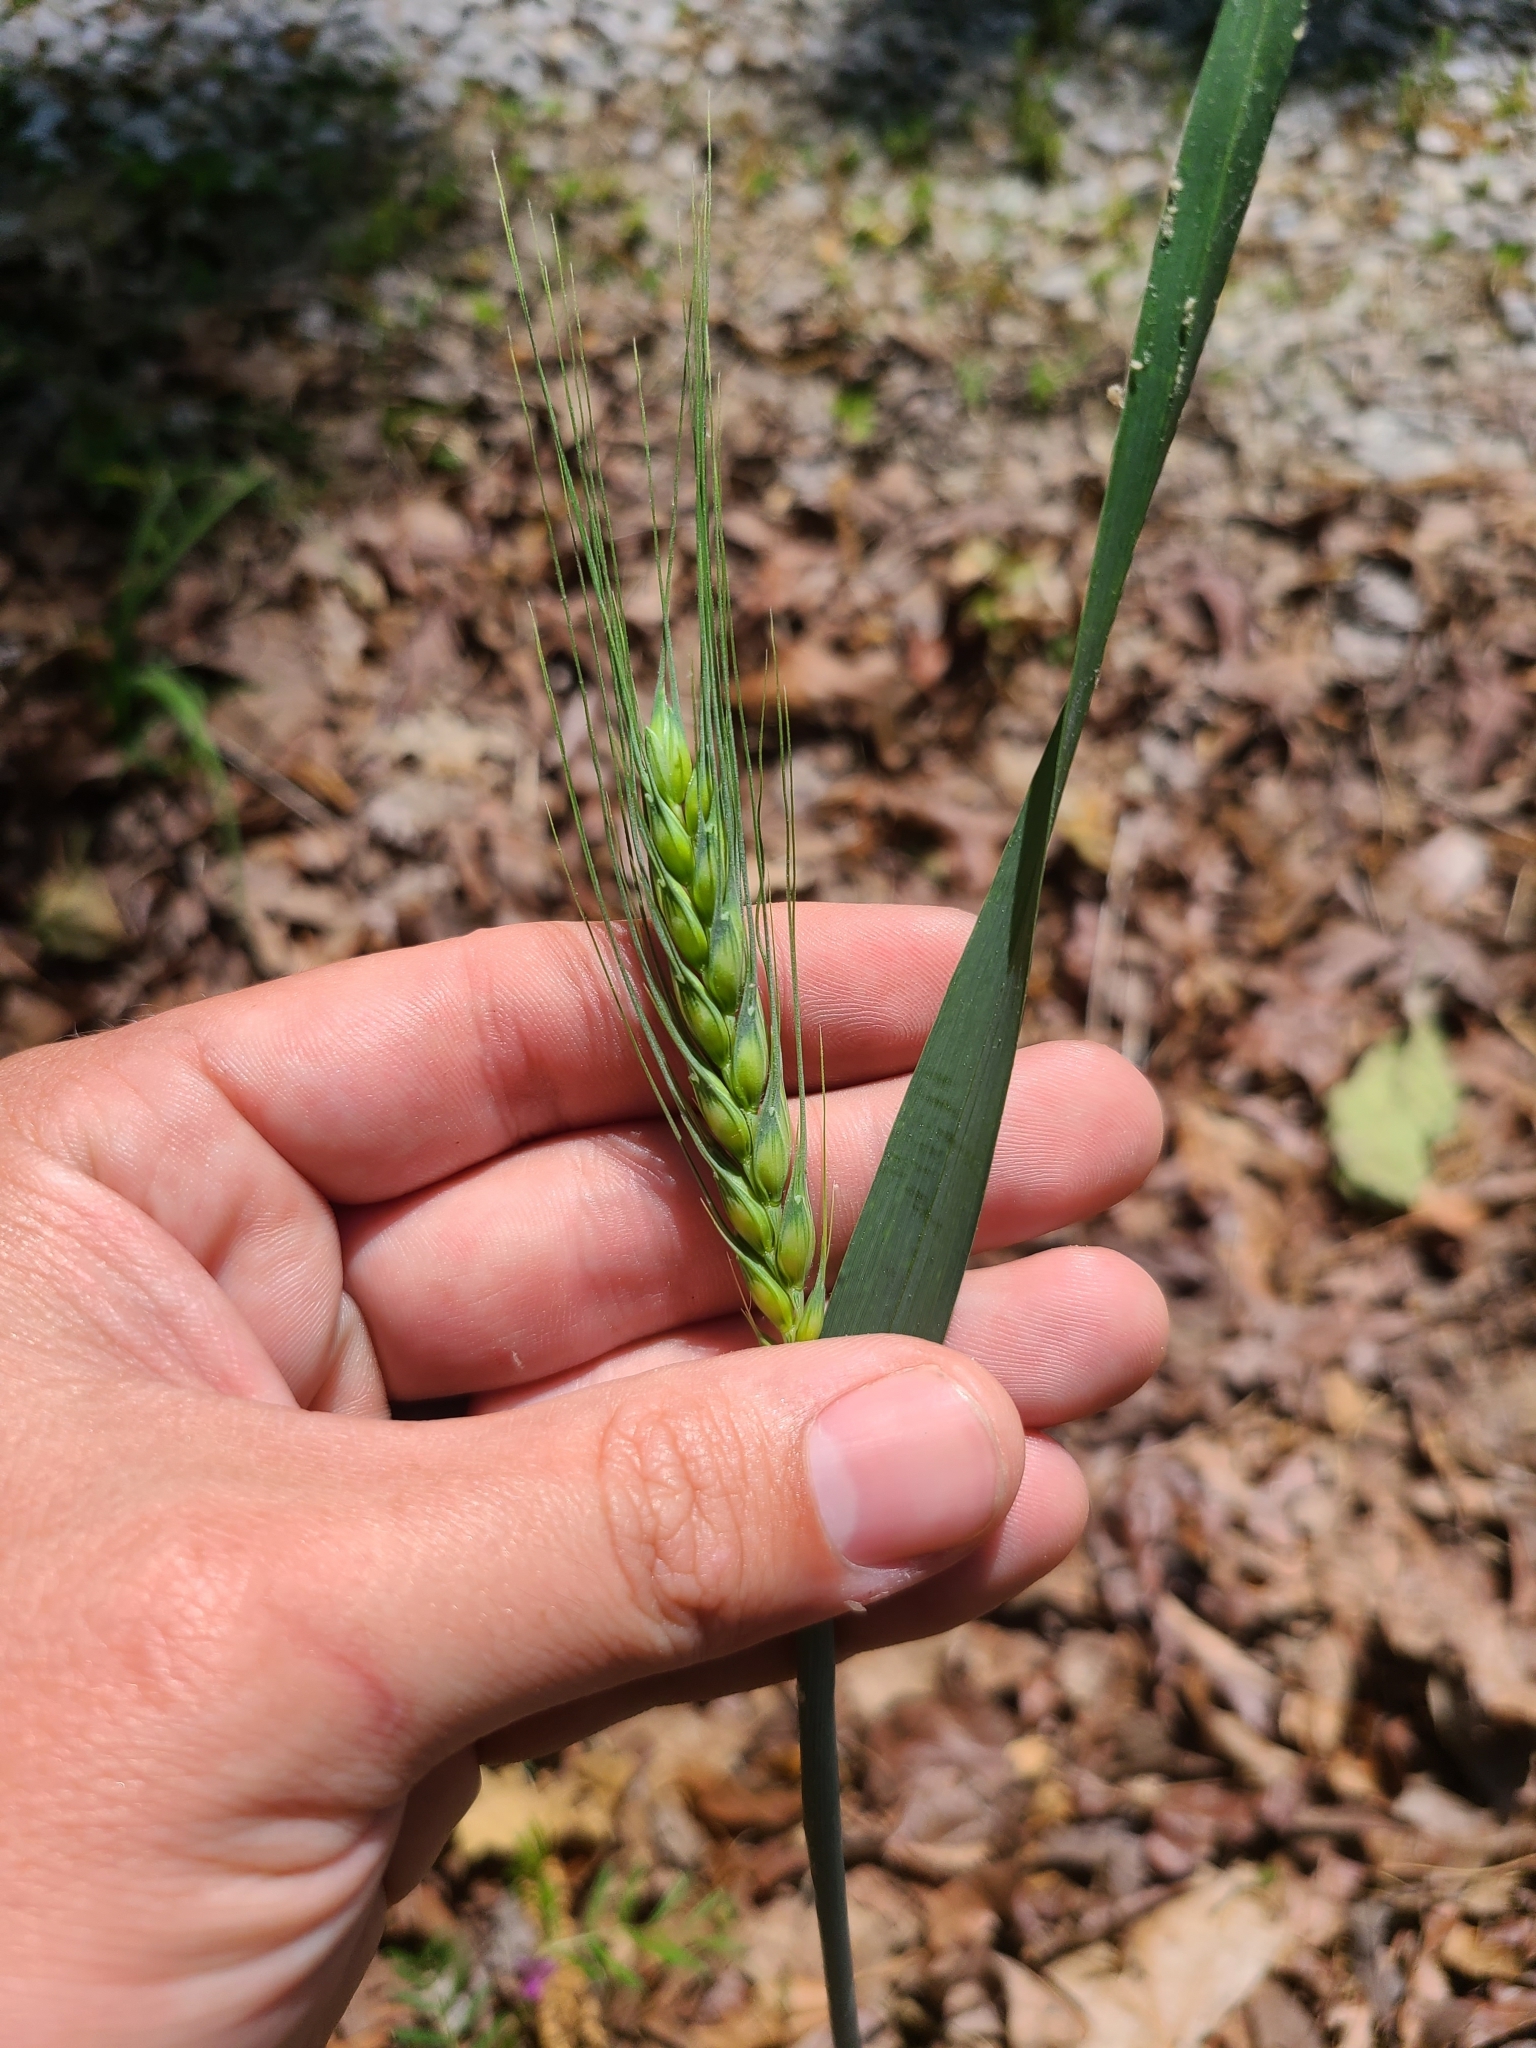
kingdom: Plantae
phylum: Tracheophyta
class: Liliopsida
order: Poales
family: Poaceae
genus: Triticum
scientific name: Triticum aestivum
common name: Common wheat
